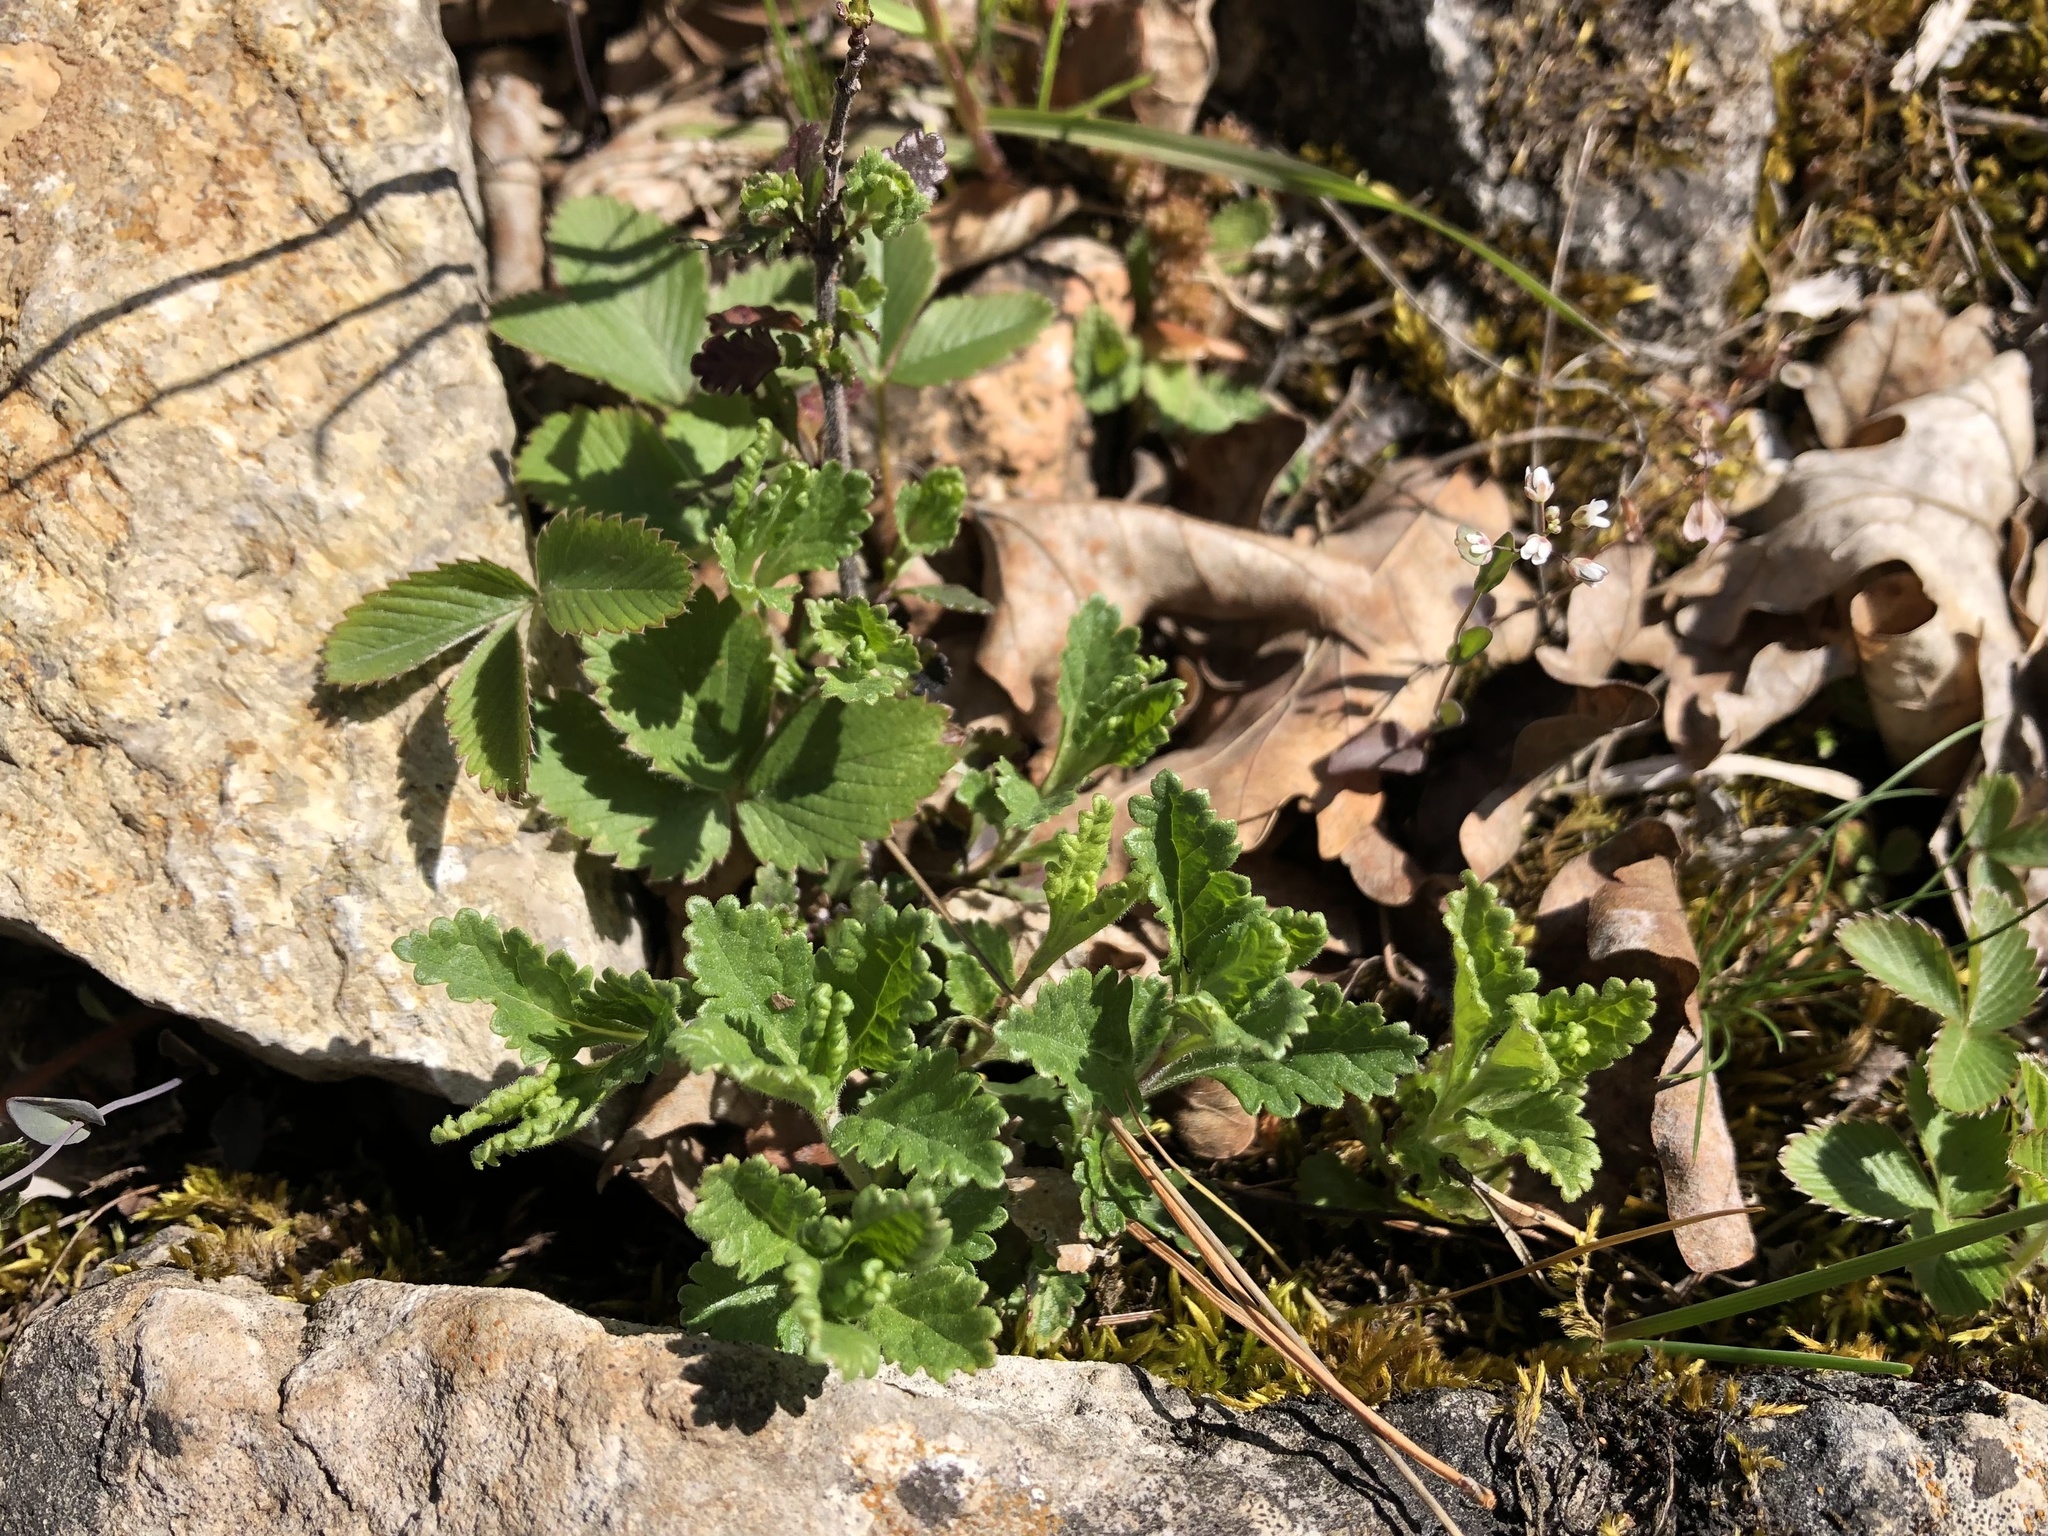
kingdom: Plantae
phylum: Tracheophyta
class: Magnoliopsida
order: Lamiales
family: Lamiaceae
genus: Teucrium
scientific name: Teucrium chamaedrys
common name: Wall germander
